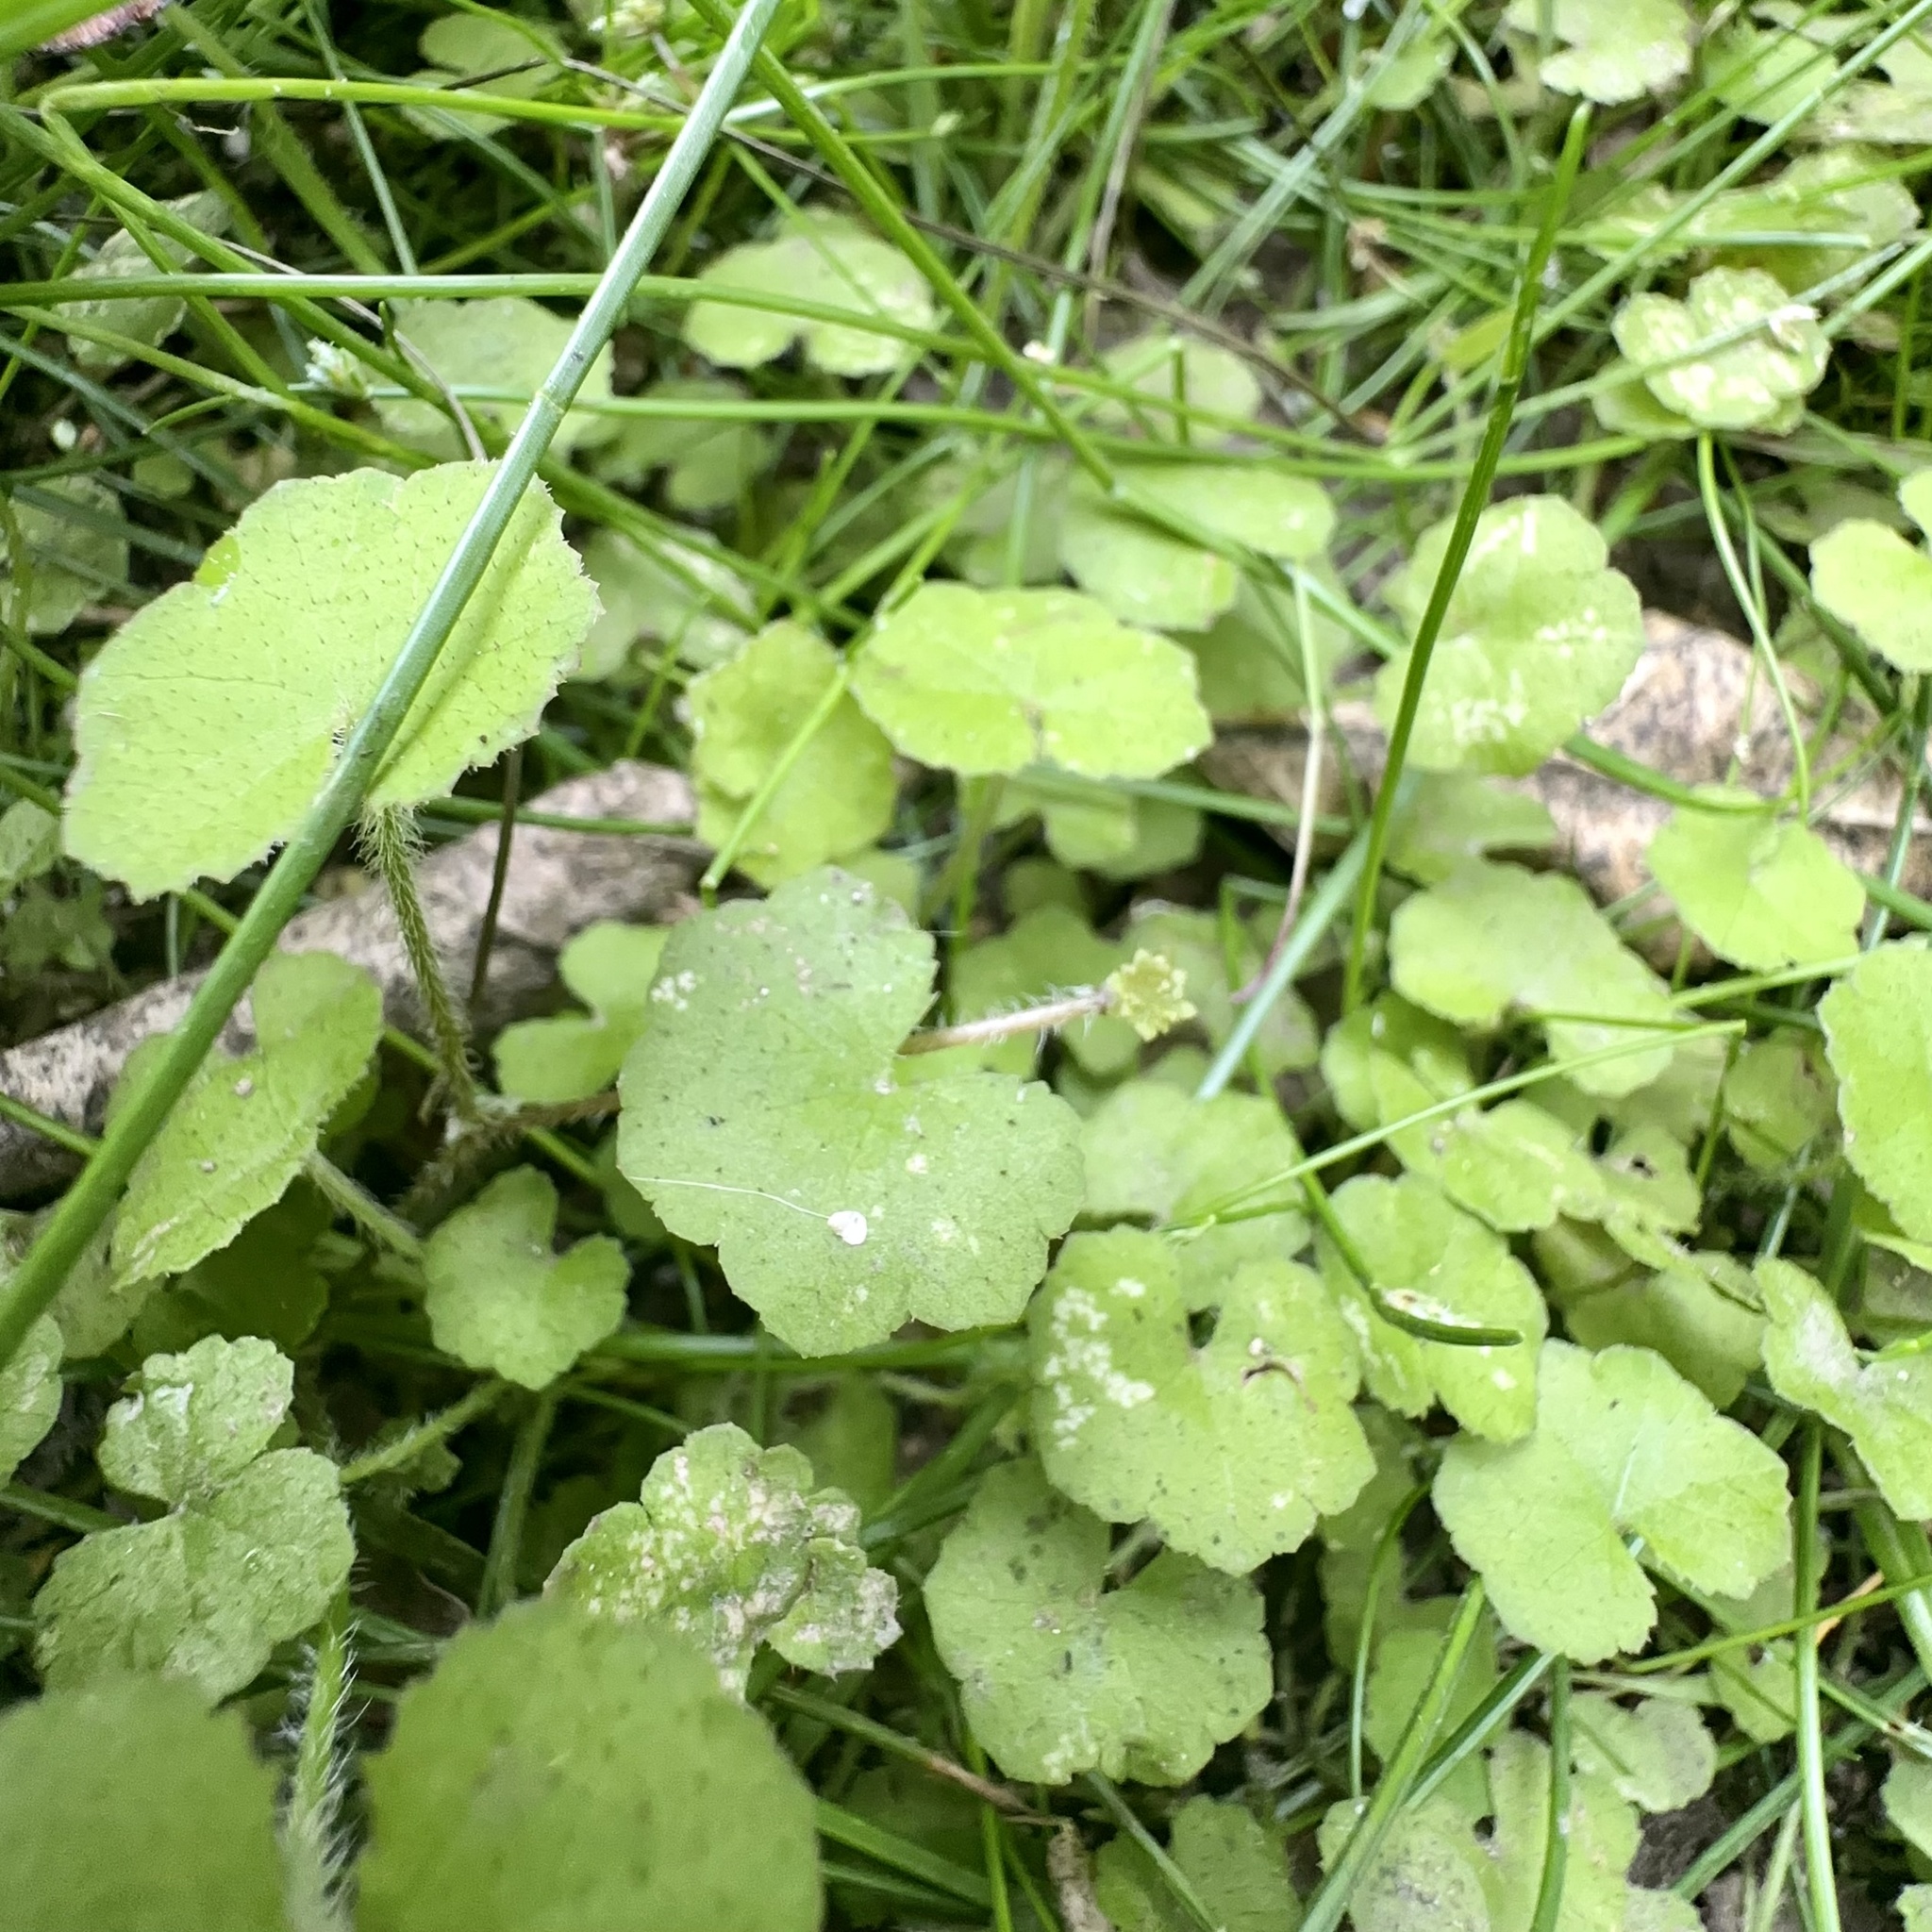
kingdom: Plantae
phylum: Tracheophyta
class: Magnoliopsida
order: Apiales
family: Araliaceae
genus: Hydrocotyle
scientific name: Hydrocotyle novae-zeelandiae
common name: New zealand pennywort
